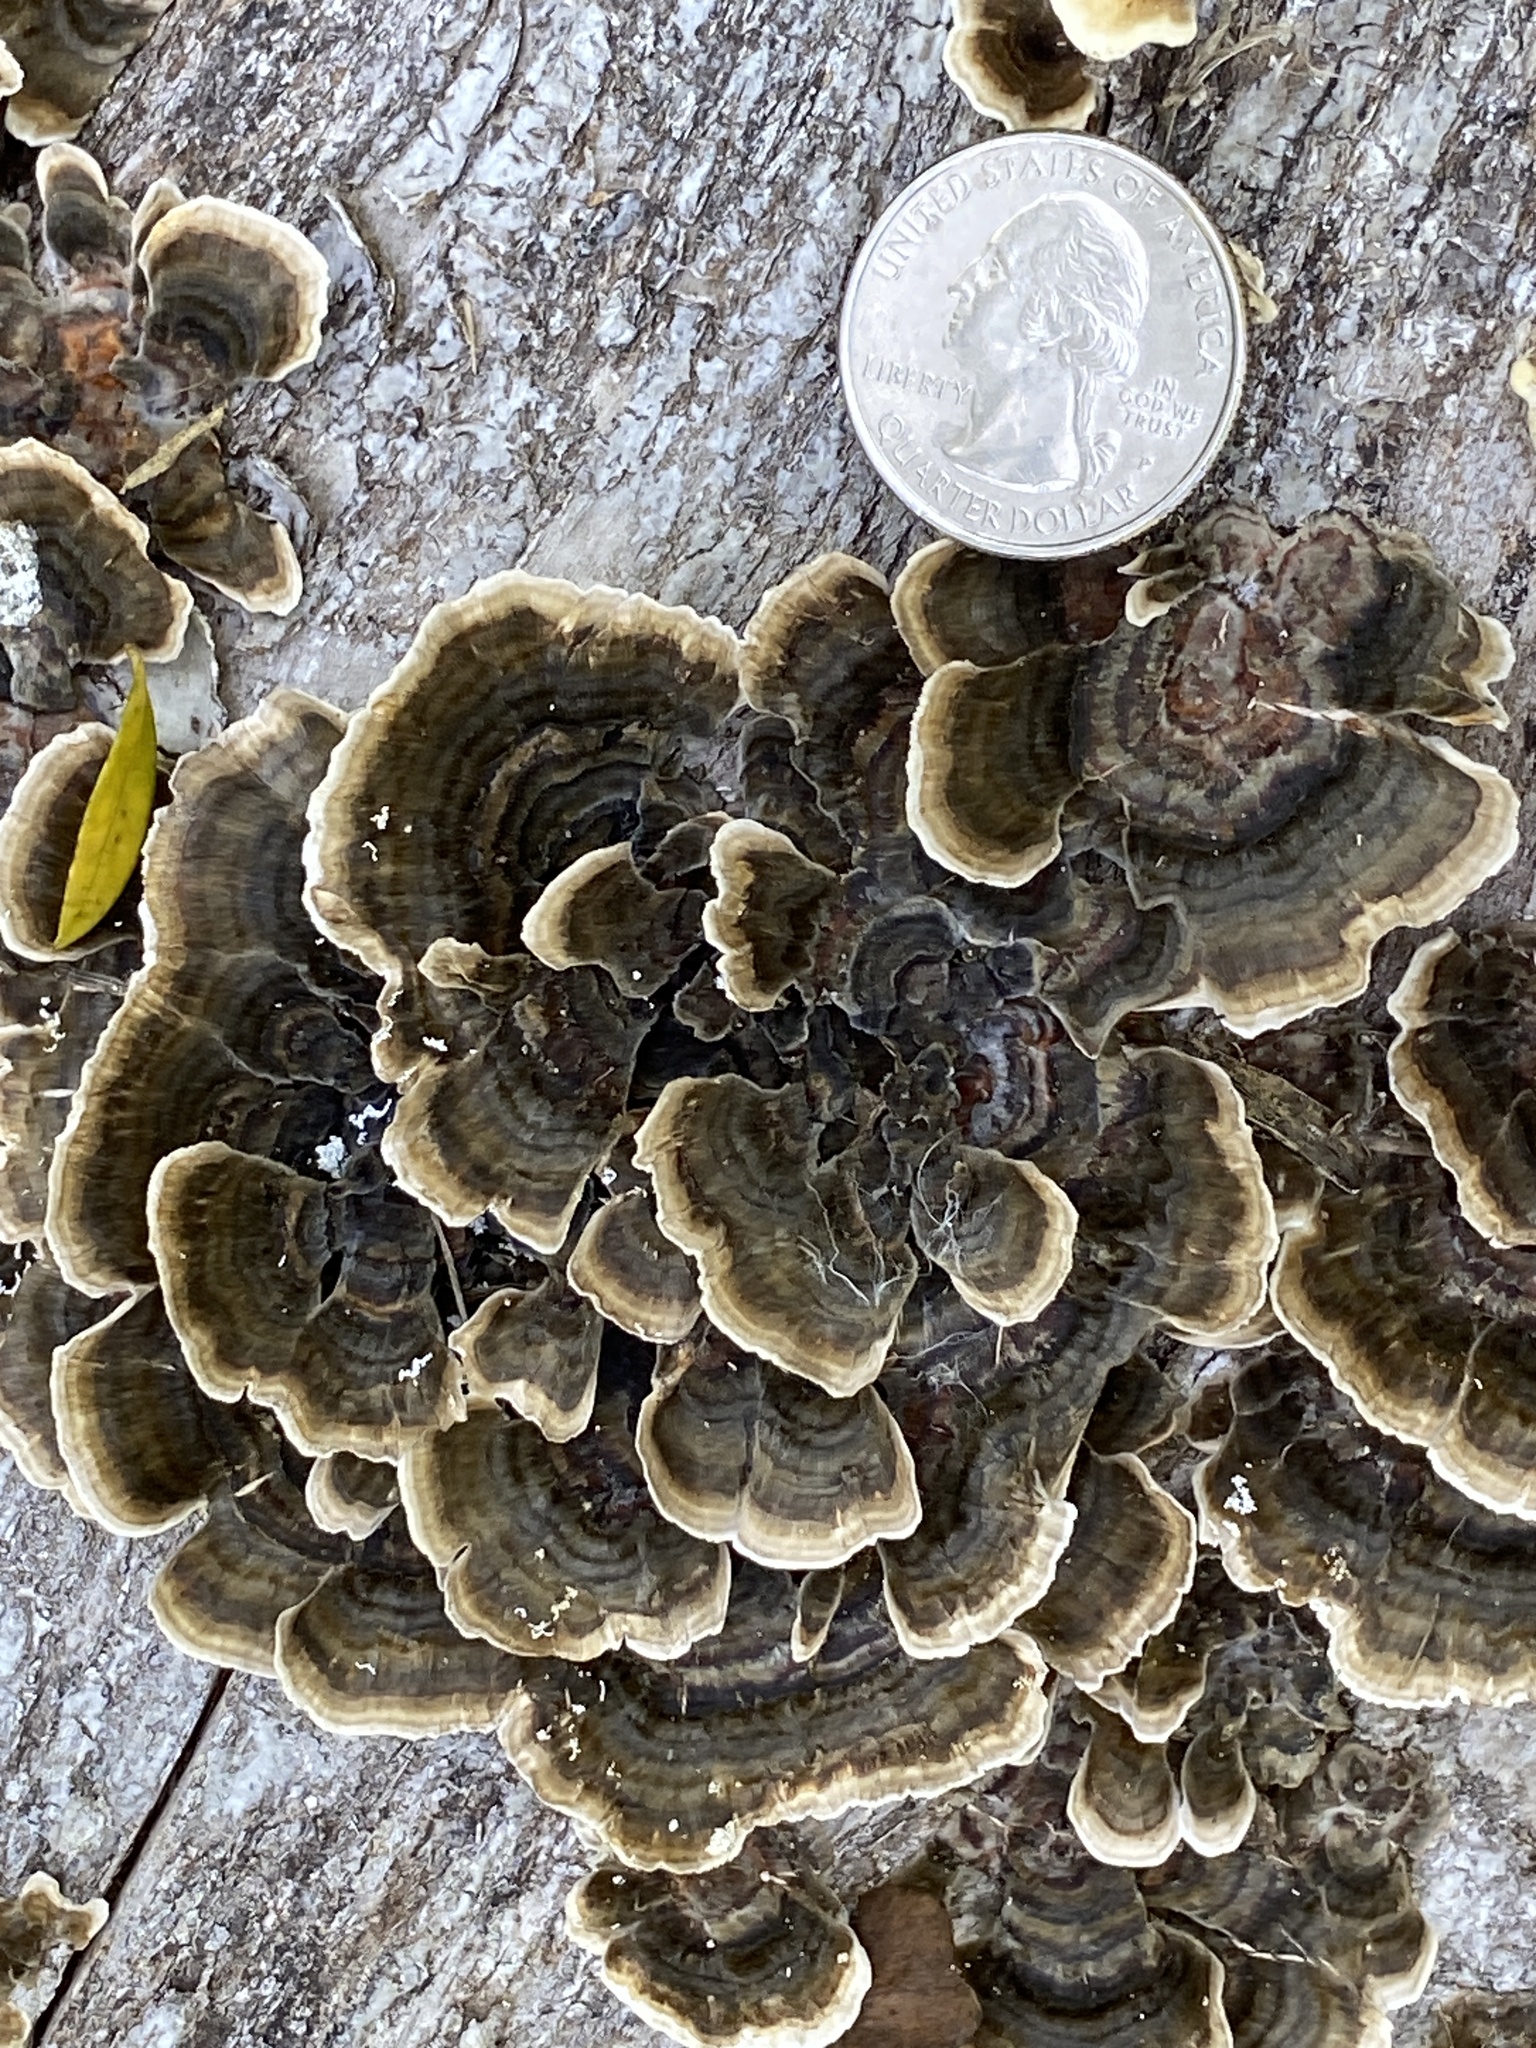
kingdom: Fungi
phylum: Basidiomycota
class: Agaricomycetes
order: Polyporales
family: Polyporaceae
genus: Trametes
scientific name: Trametes versicolor
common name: Turkeytail
